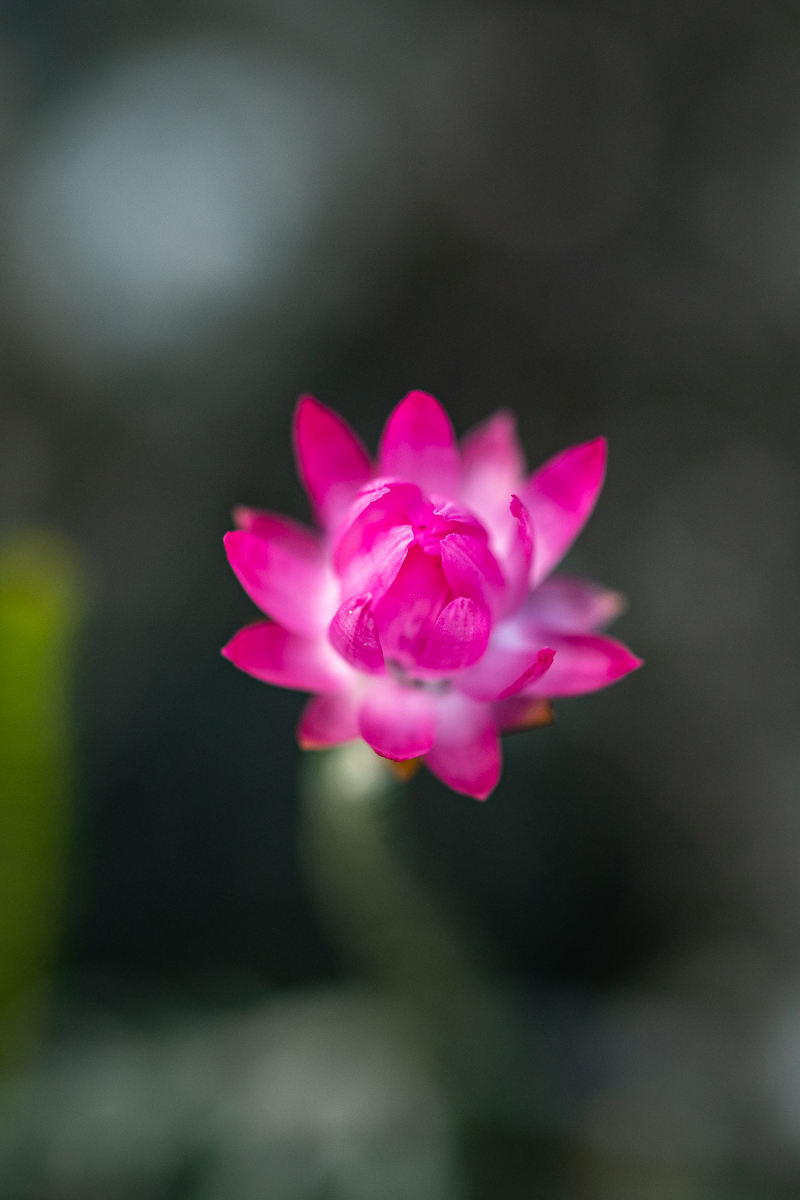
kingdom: Plantae
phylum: Tracheophyta
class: Magnoliopsida
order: Asterales
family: Asteraceae
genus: Syncarpha
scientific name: Syncarpha canescens
